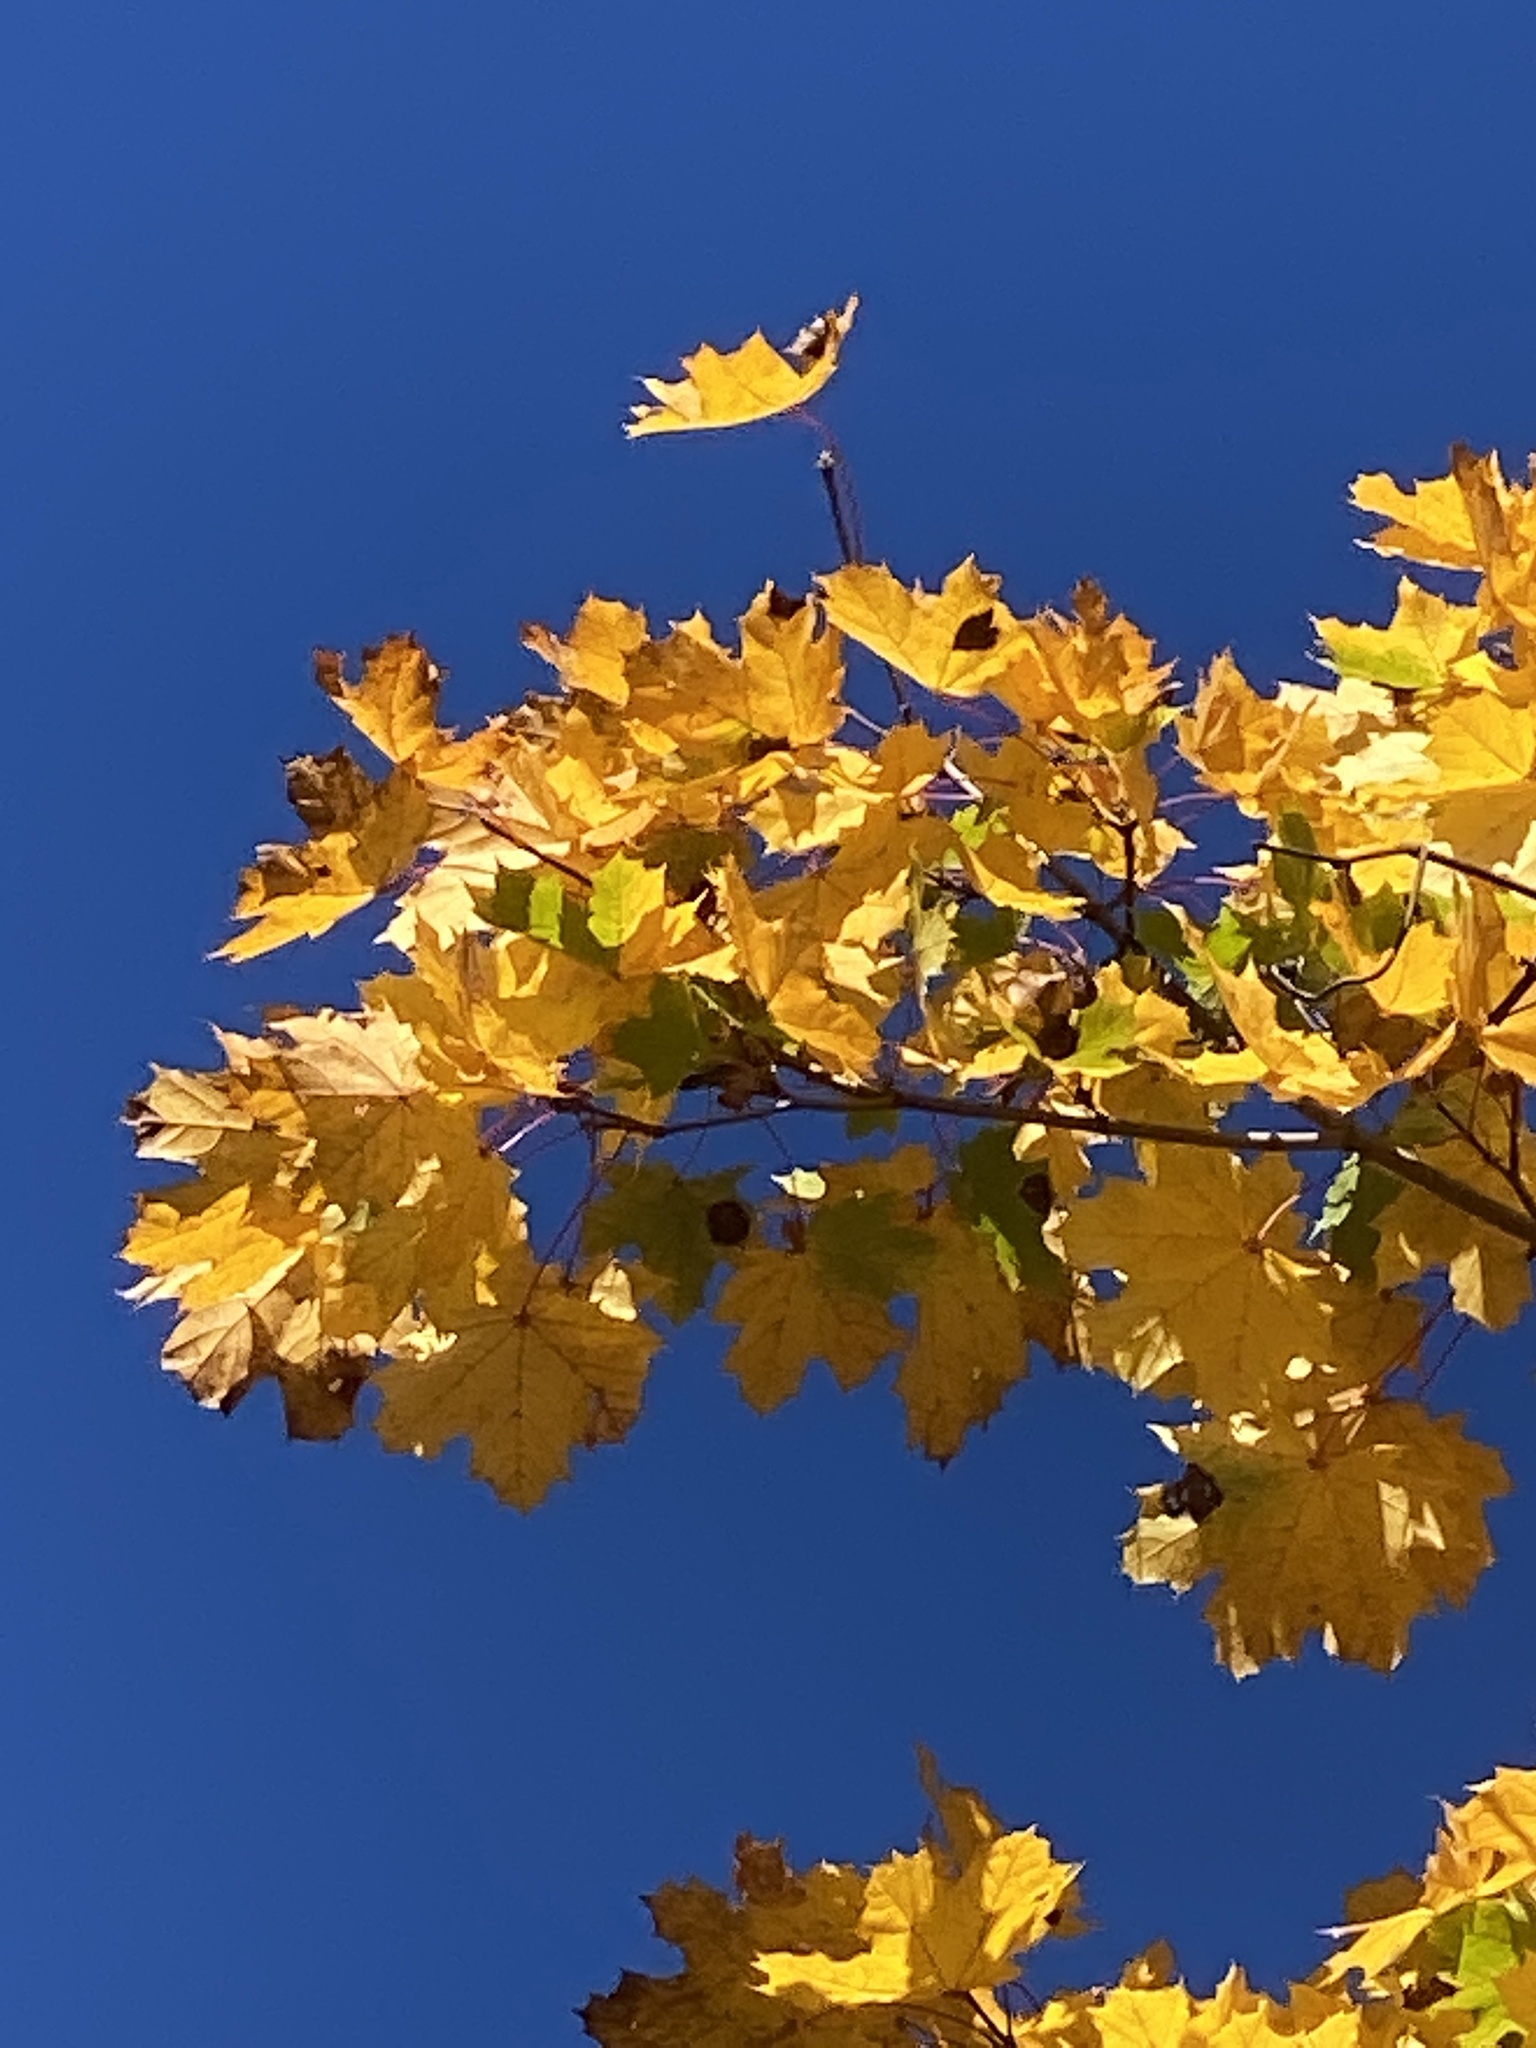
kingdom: Plantae
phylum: Tracheophyta
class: Magnoliopsida
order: Sapindales
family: Sapindaceae
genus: Acer
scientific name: Acer platanoides
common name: Norway maple
